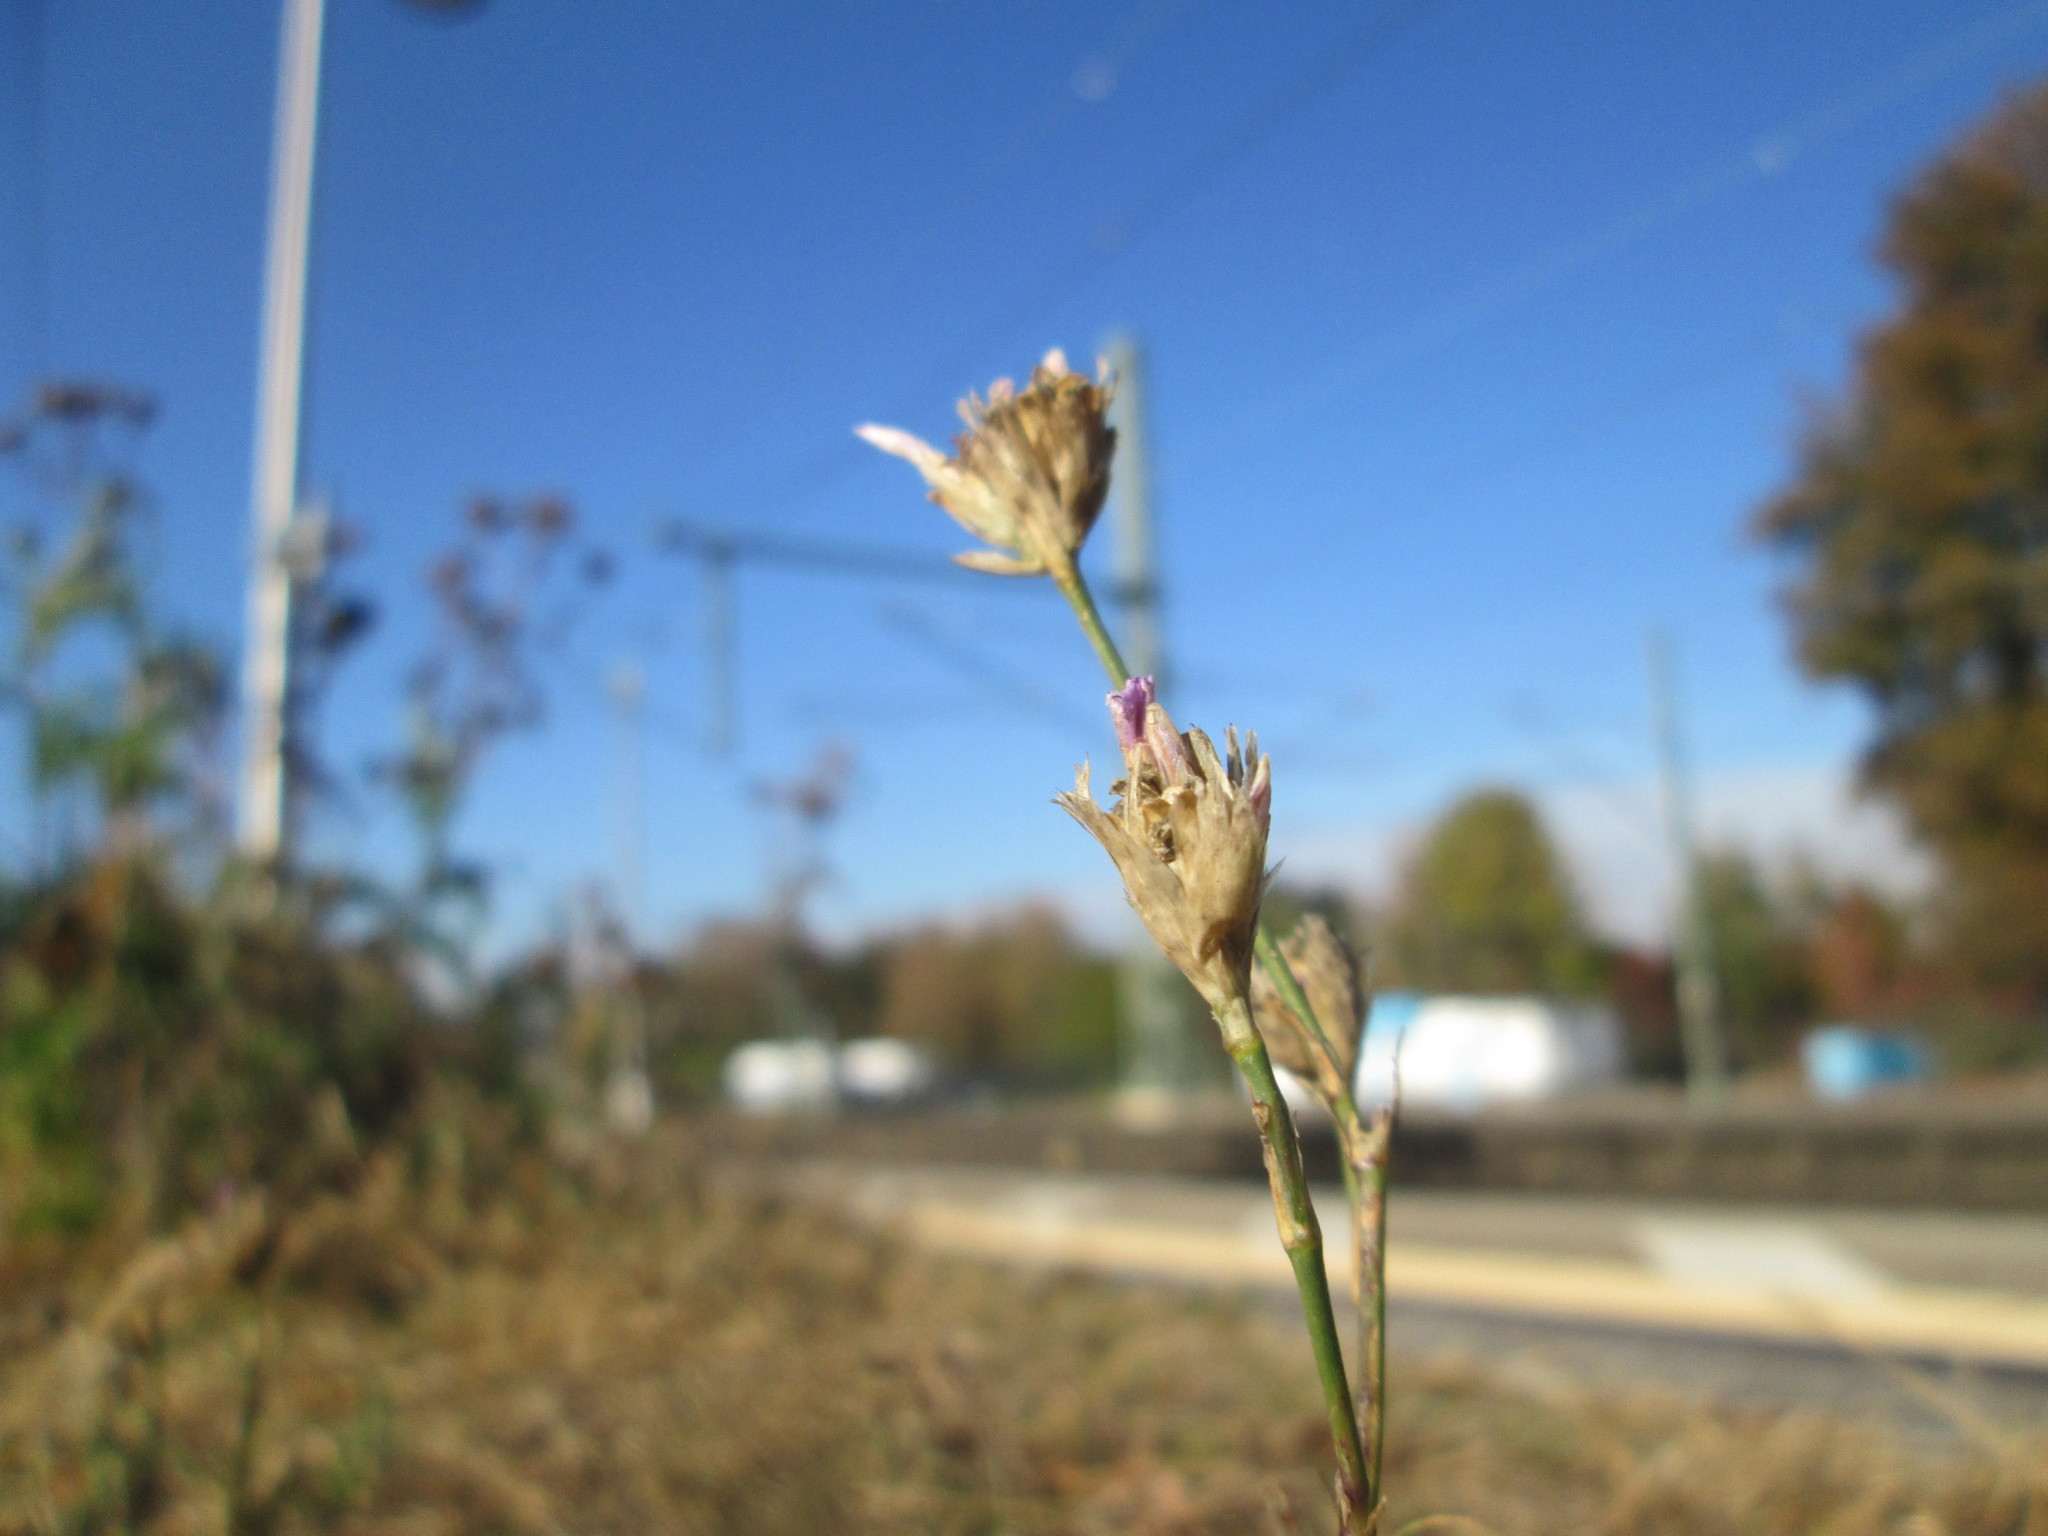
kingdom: Plantae
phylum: Tracheophyta
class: Magnoliopsida
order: Caryophyllales
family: Caryophyllaceae
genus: Petrorhagia
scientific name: Petrorhagia prolifera
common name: Proliferous pink
